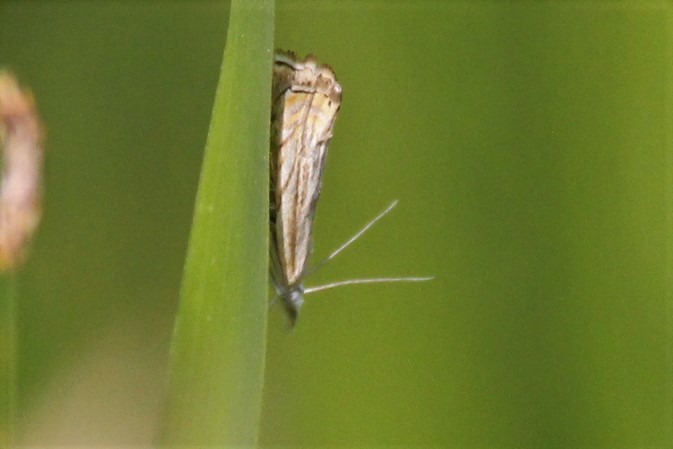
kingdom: Animalia
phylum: Arthropoda
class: Insecta
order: Lepidoptera
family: Crambidae
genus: Chrysoteuchia
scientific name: Chrysoteuchia topiarius
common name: Topiary grass-veneer
